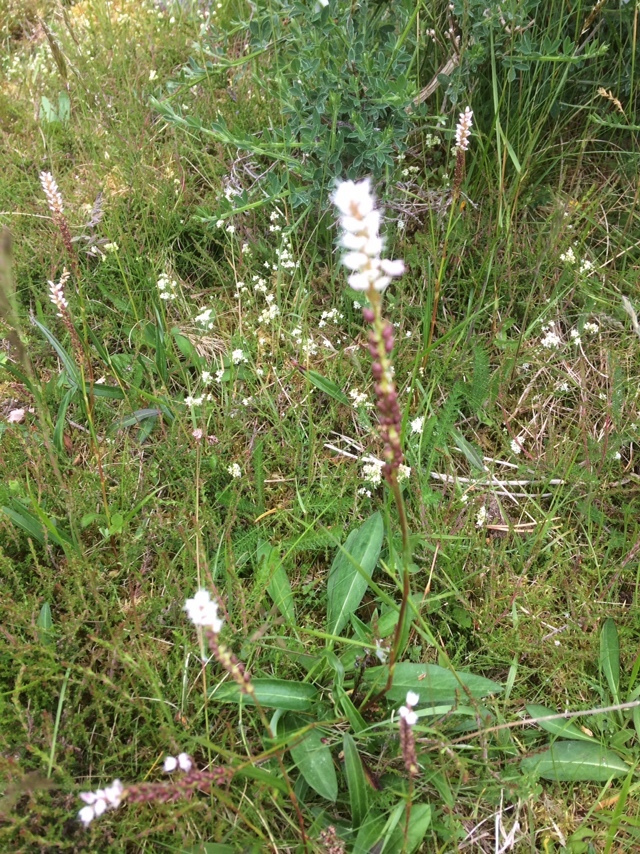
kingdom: Plantae
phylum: Tracheophyta
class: Magnoliopsida
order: Caryophyllales
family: Polygonaceae
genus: Bistorta
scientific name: Bistorta vivipara
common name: Alpine bistort
